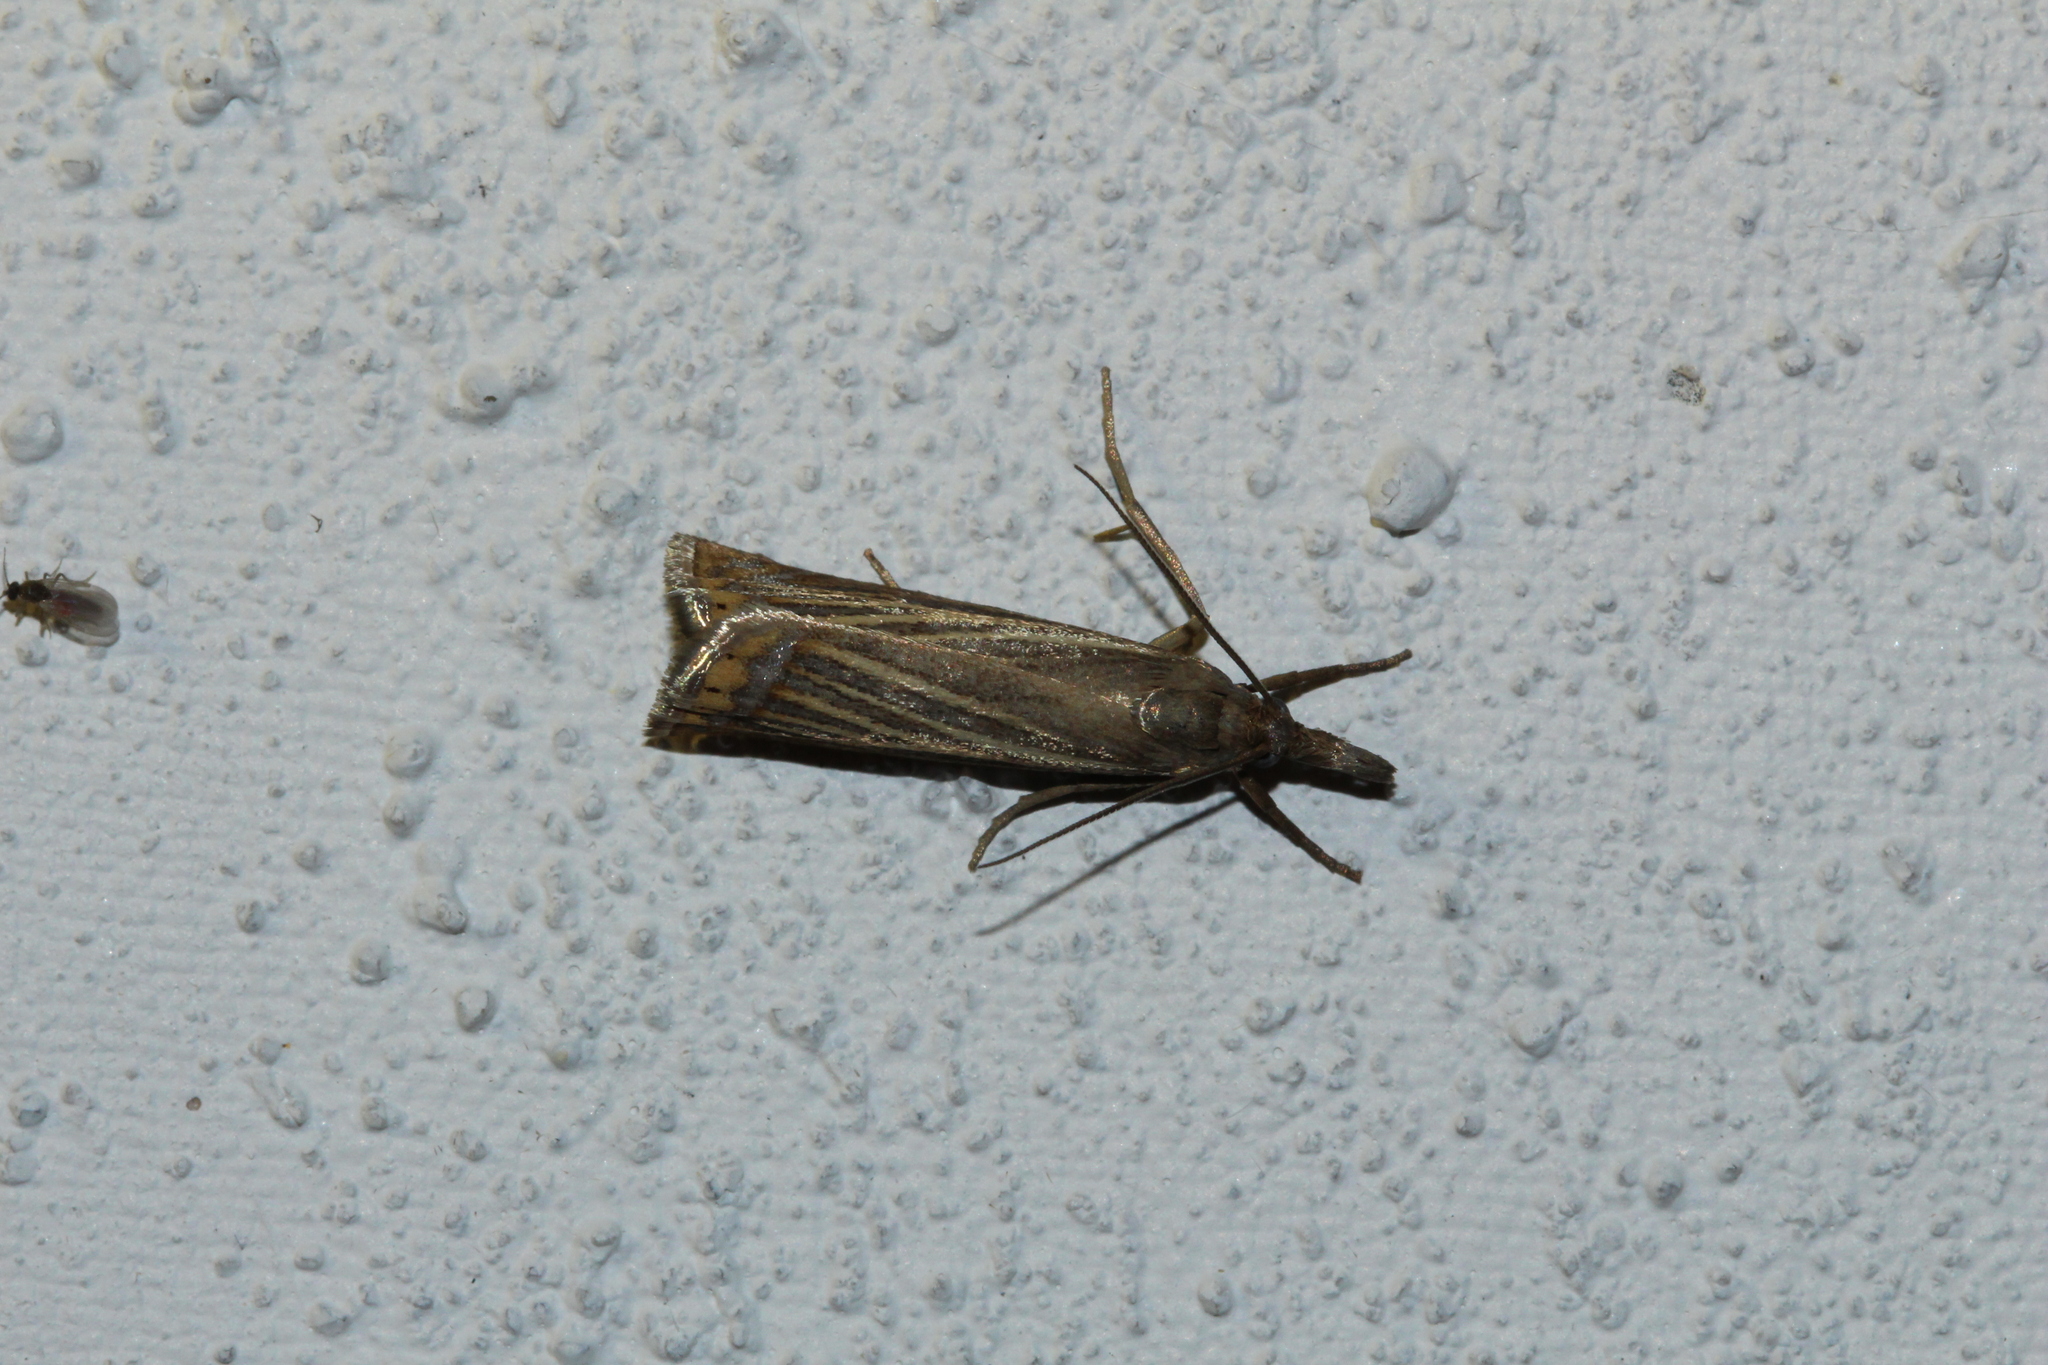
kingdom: Animalia
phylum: Arthropoda
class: Insecta
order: Lepidoptera
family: Crambidae
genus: Chrysoteuchia
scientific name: Chrysoteuchia culmella
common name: Garden grass-veneer
